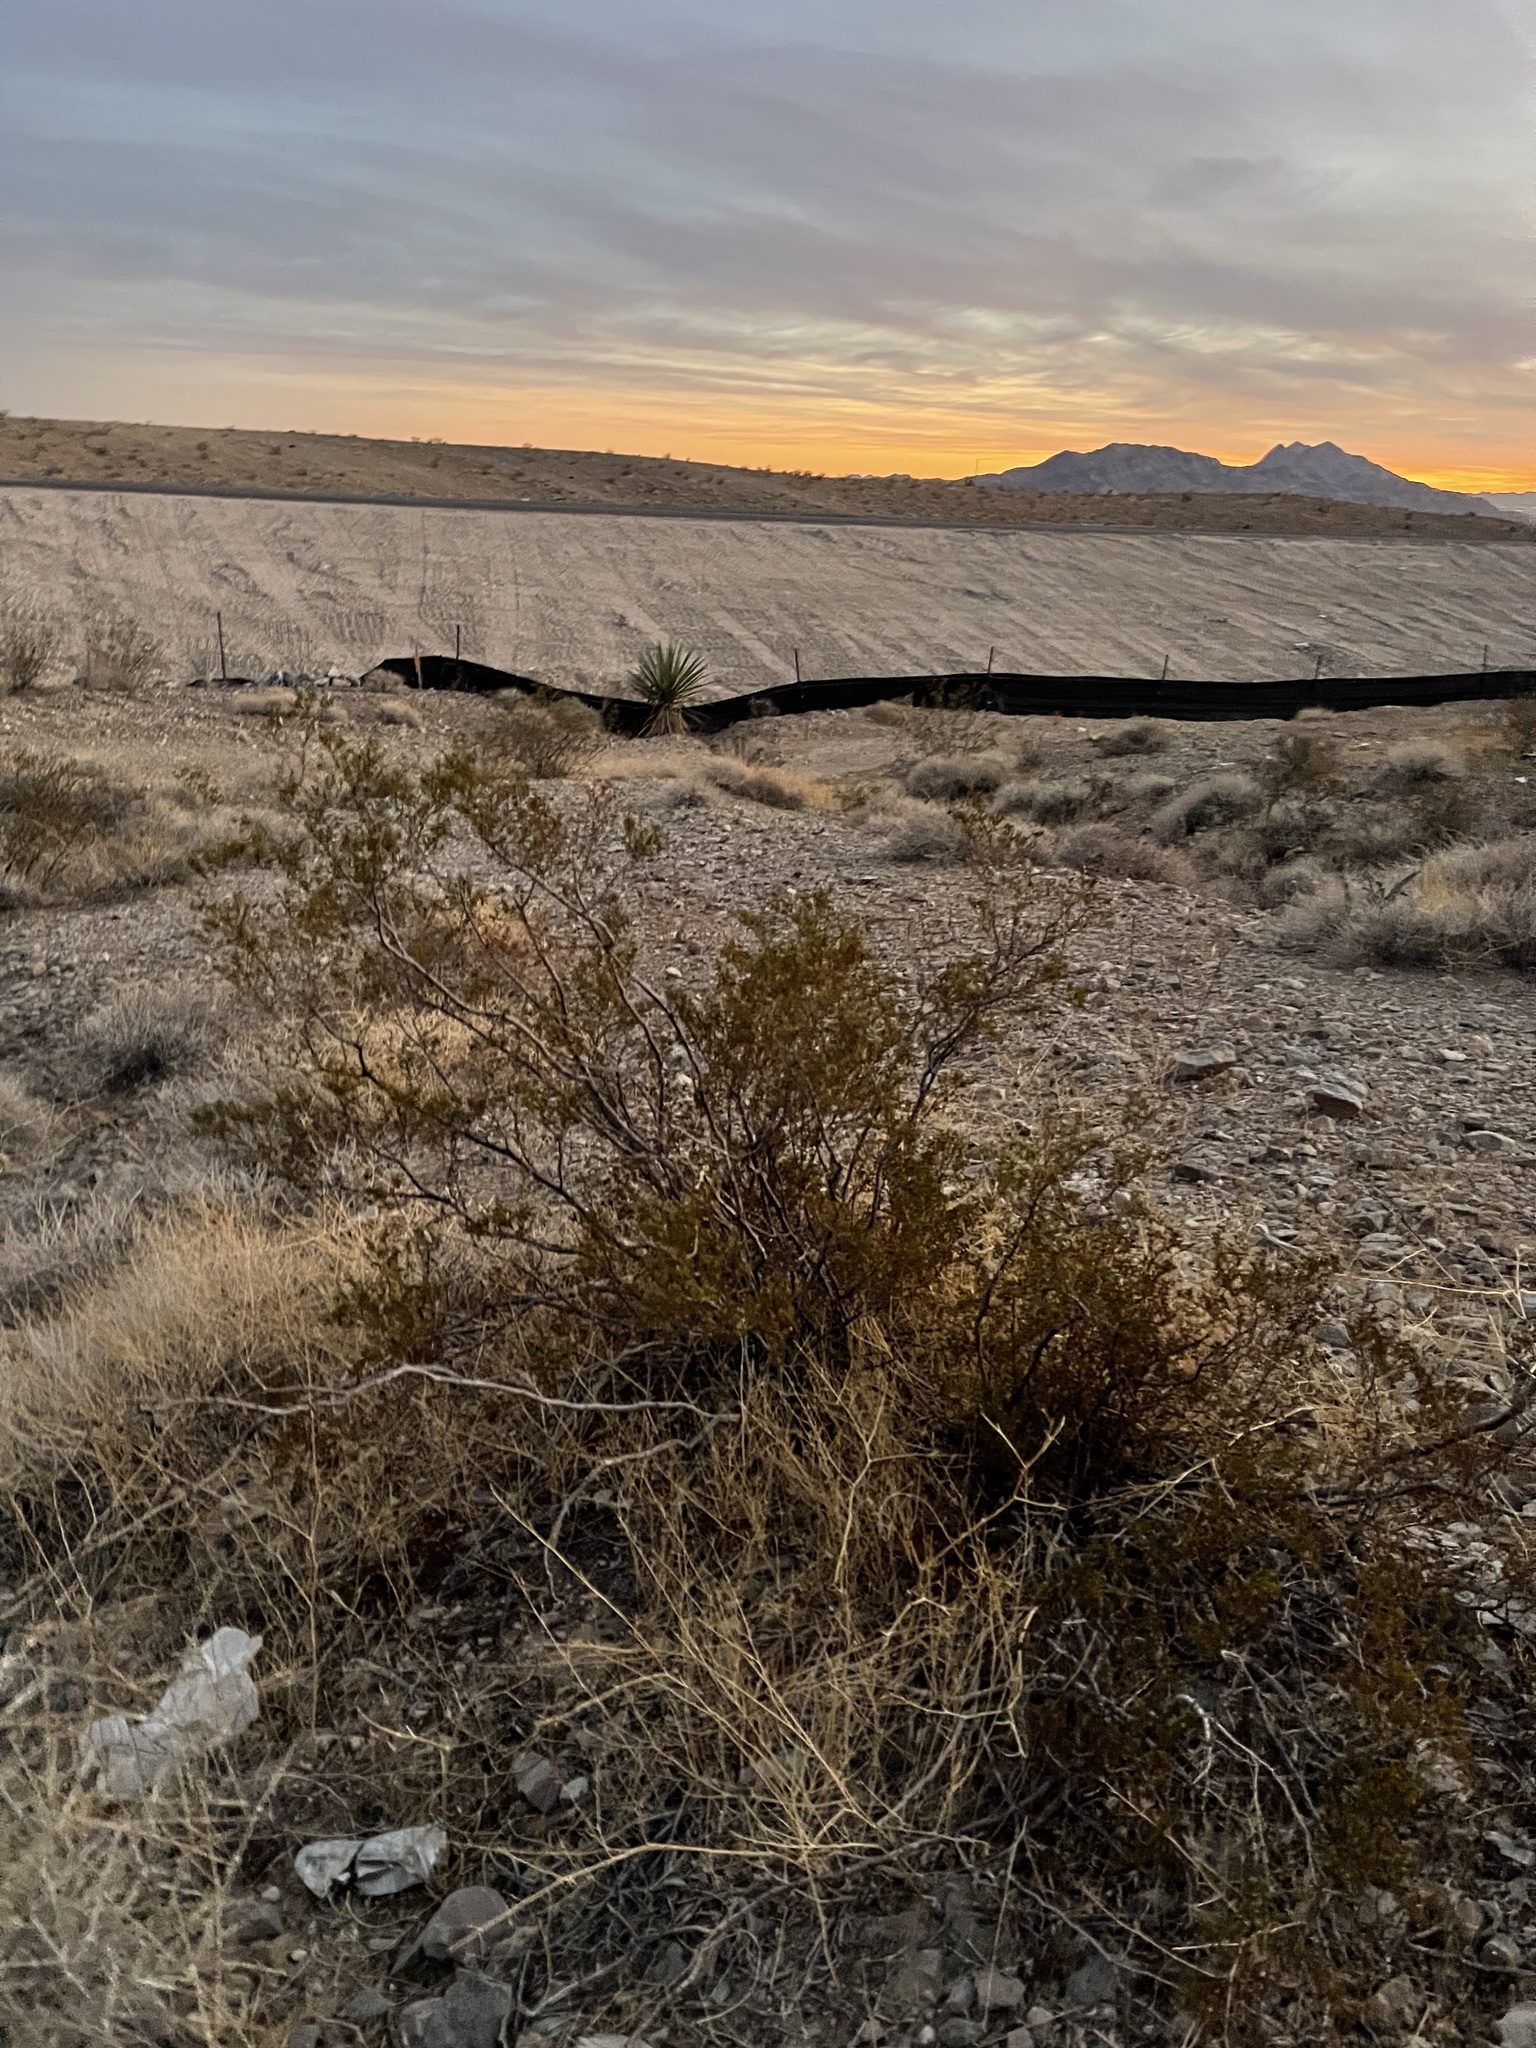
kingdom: Plantae
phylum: Tracheophyta
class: Magnoliopsida
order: Zygophyllales
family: Zygophyllaceae
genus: Larrea
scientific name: Larrea tridentata
